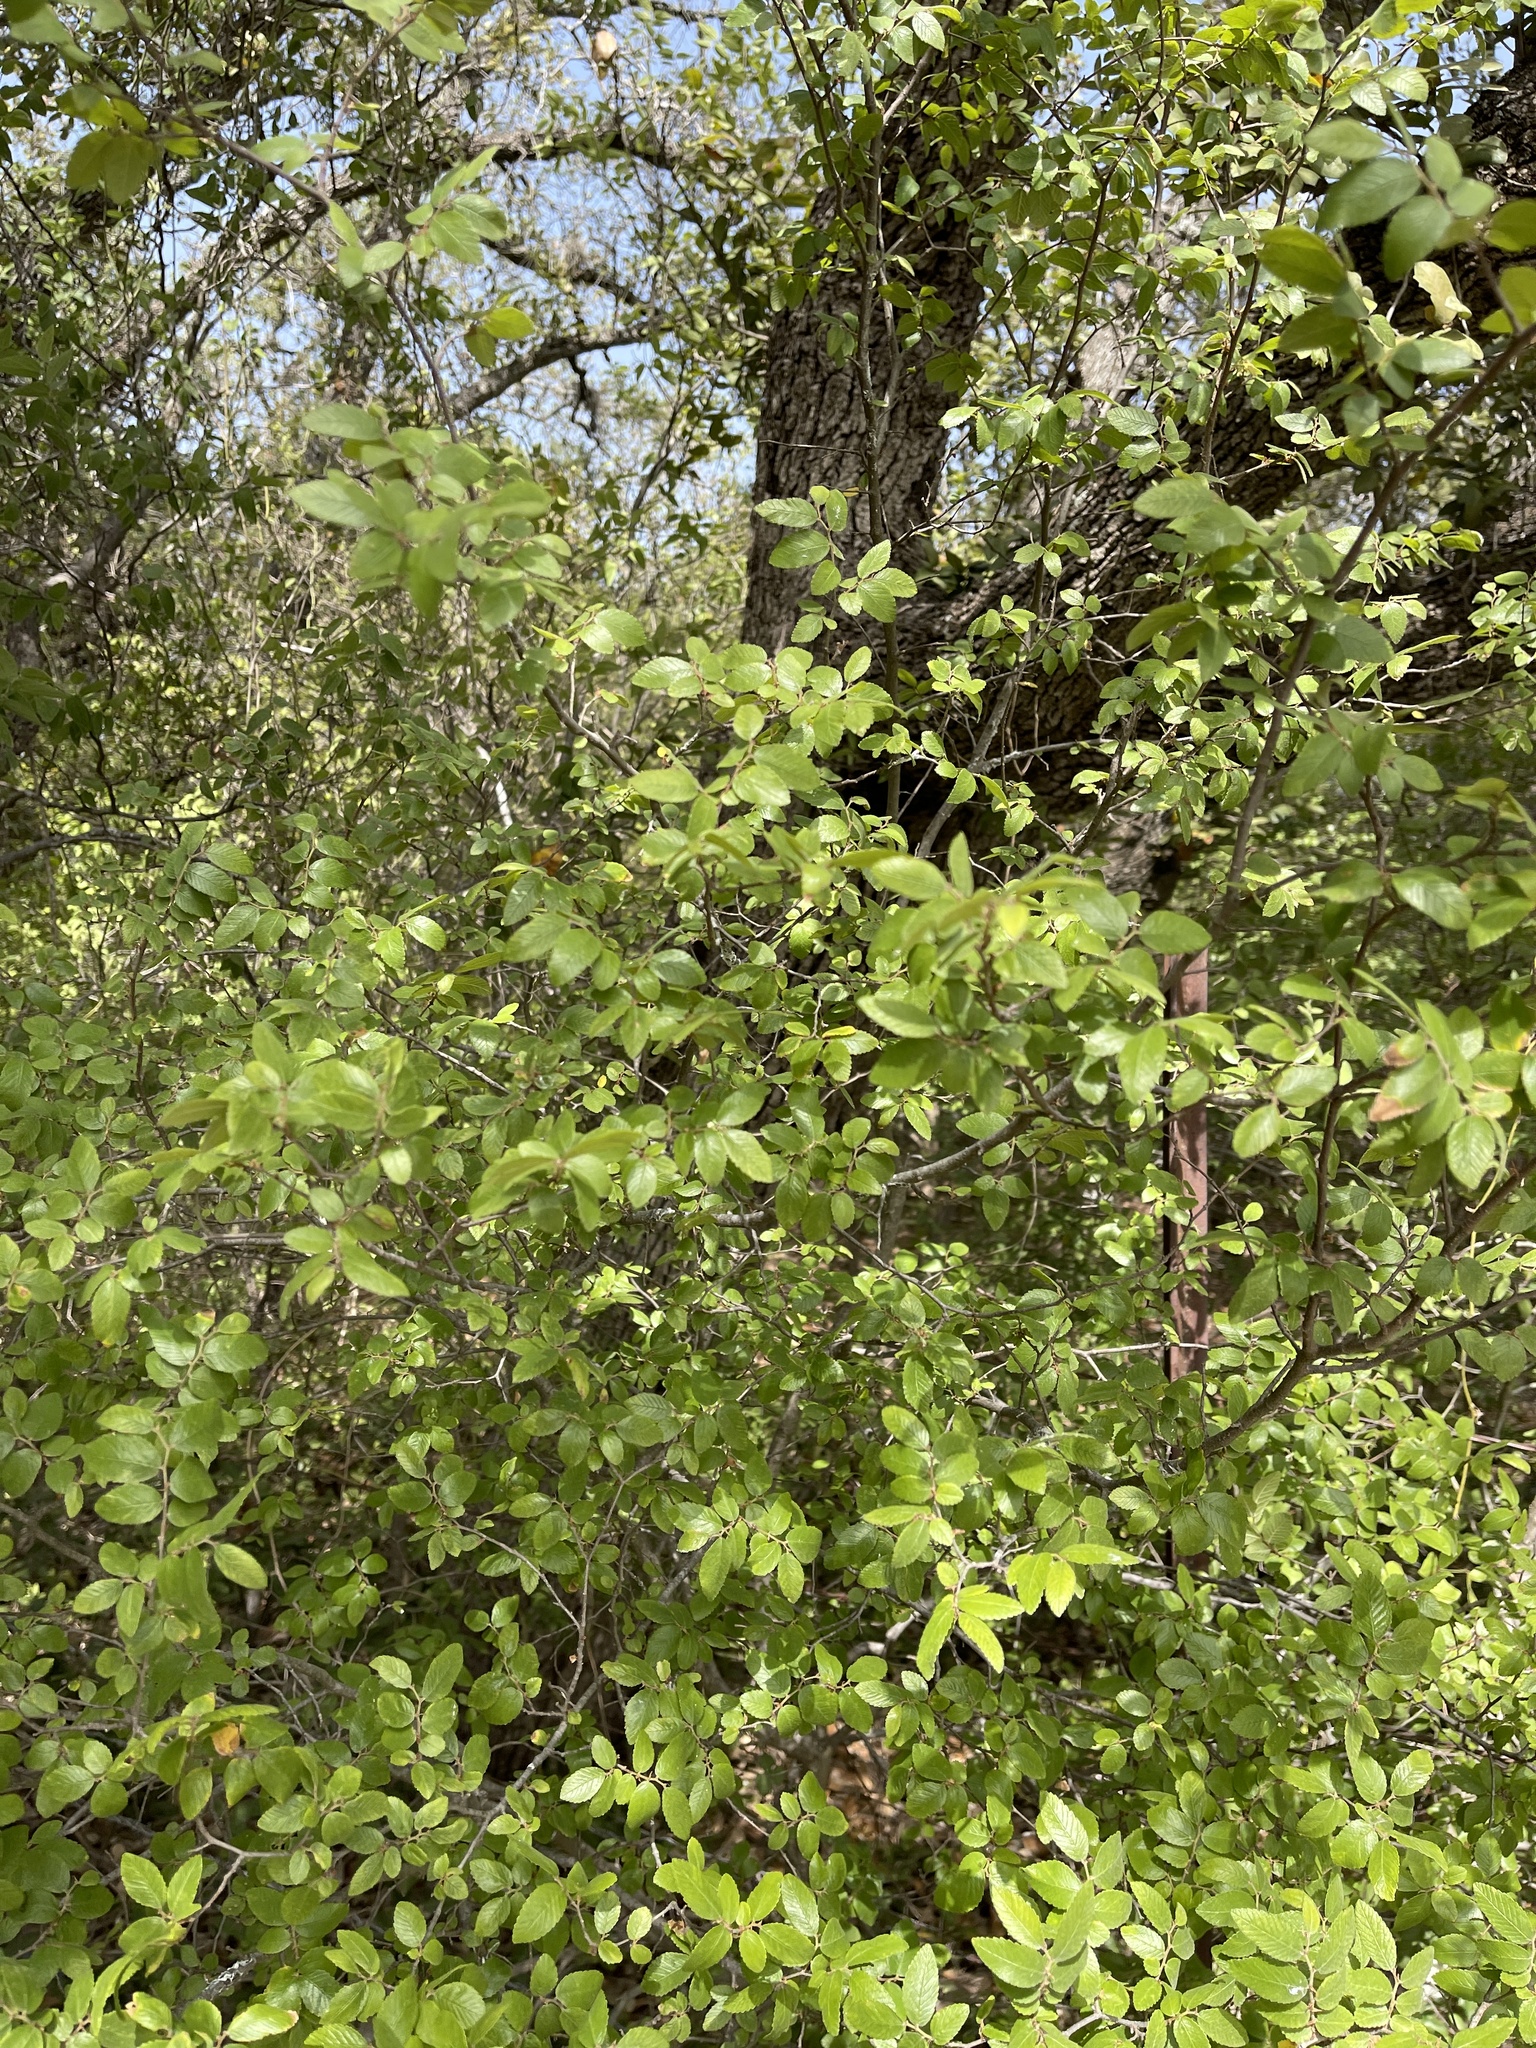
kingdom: Plantae
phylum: Tracheophyta
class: Magnoliopsida
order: Rosales
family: Ulmaceae
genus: Ulmus
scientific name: Ulmus crassifolia
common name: Basket elm
